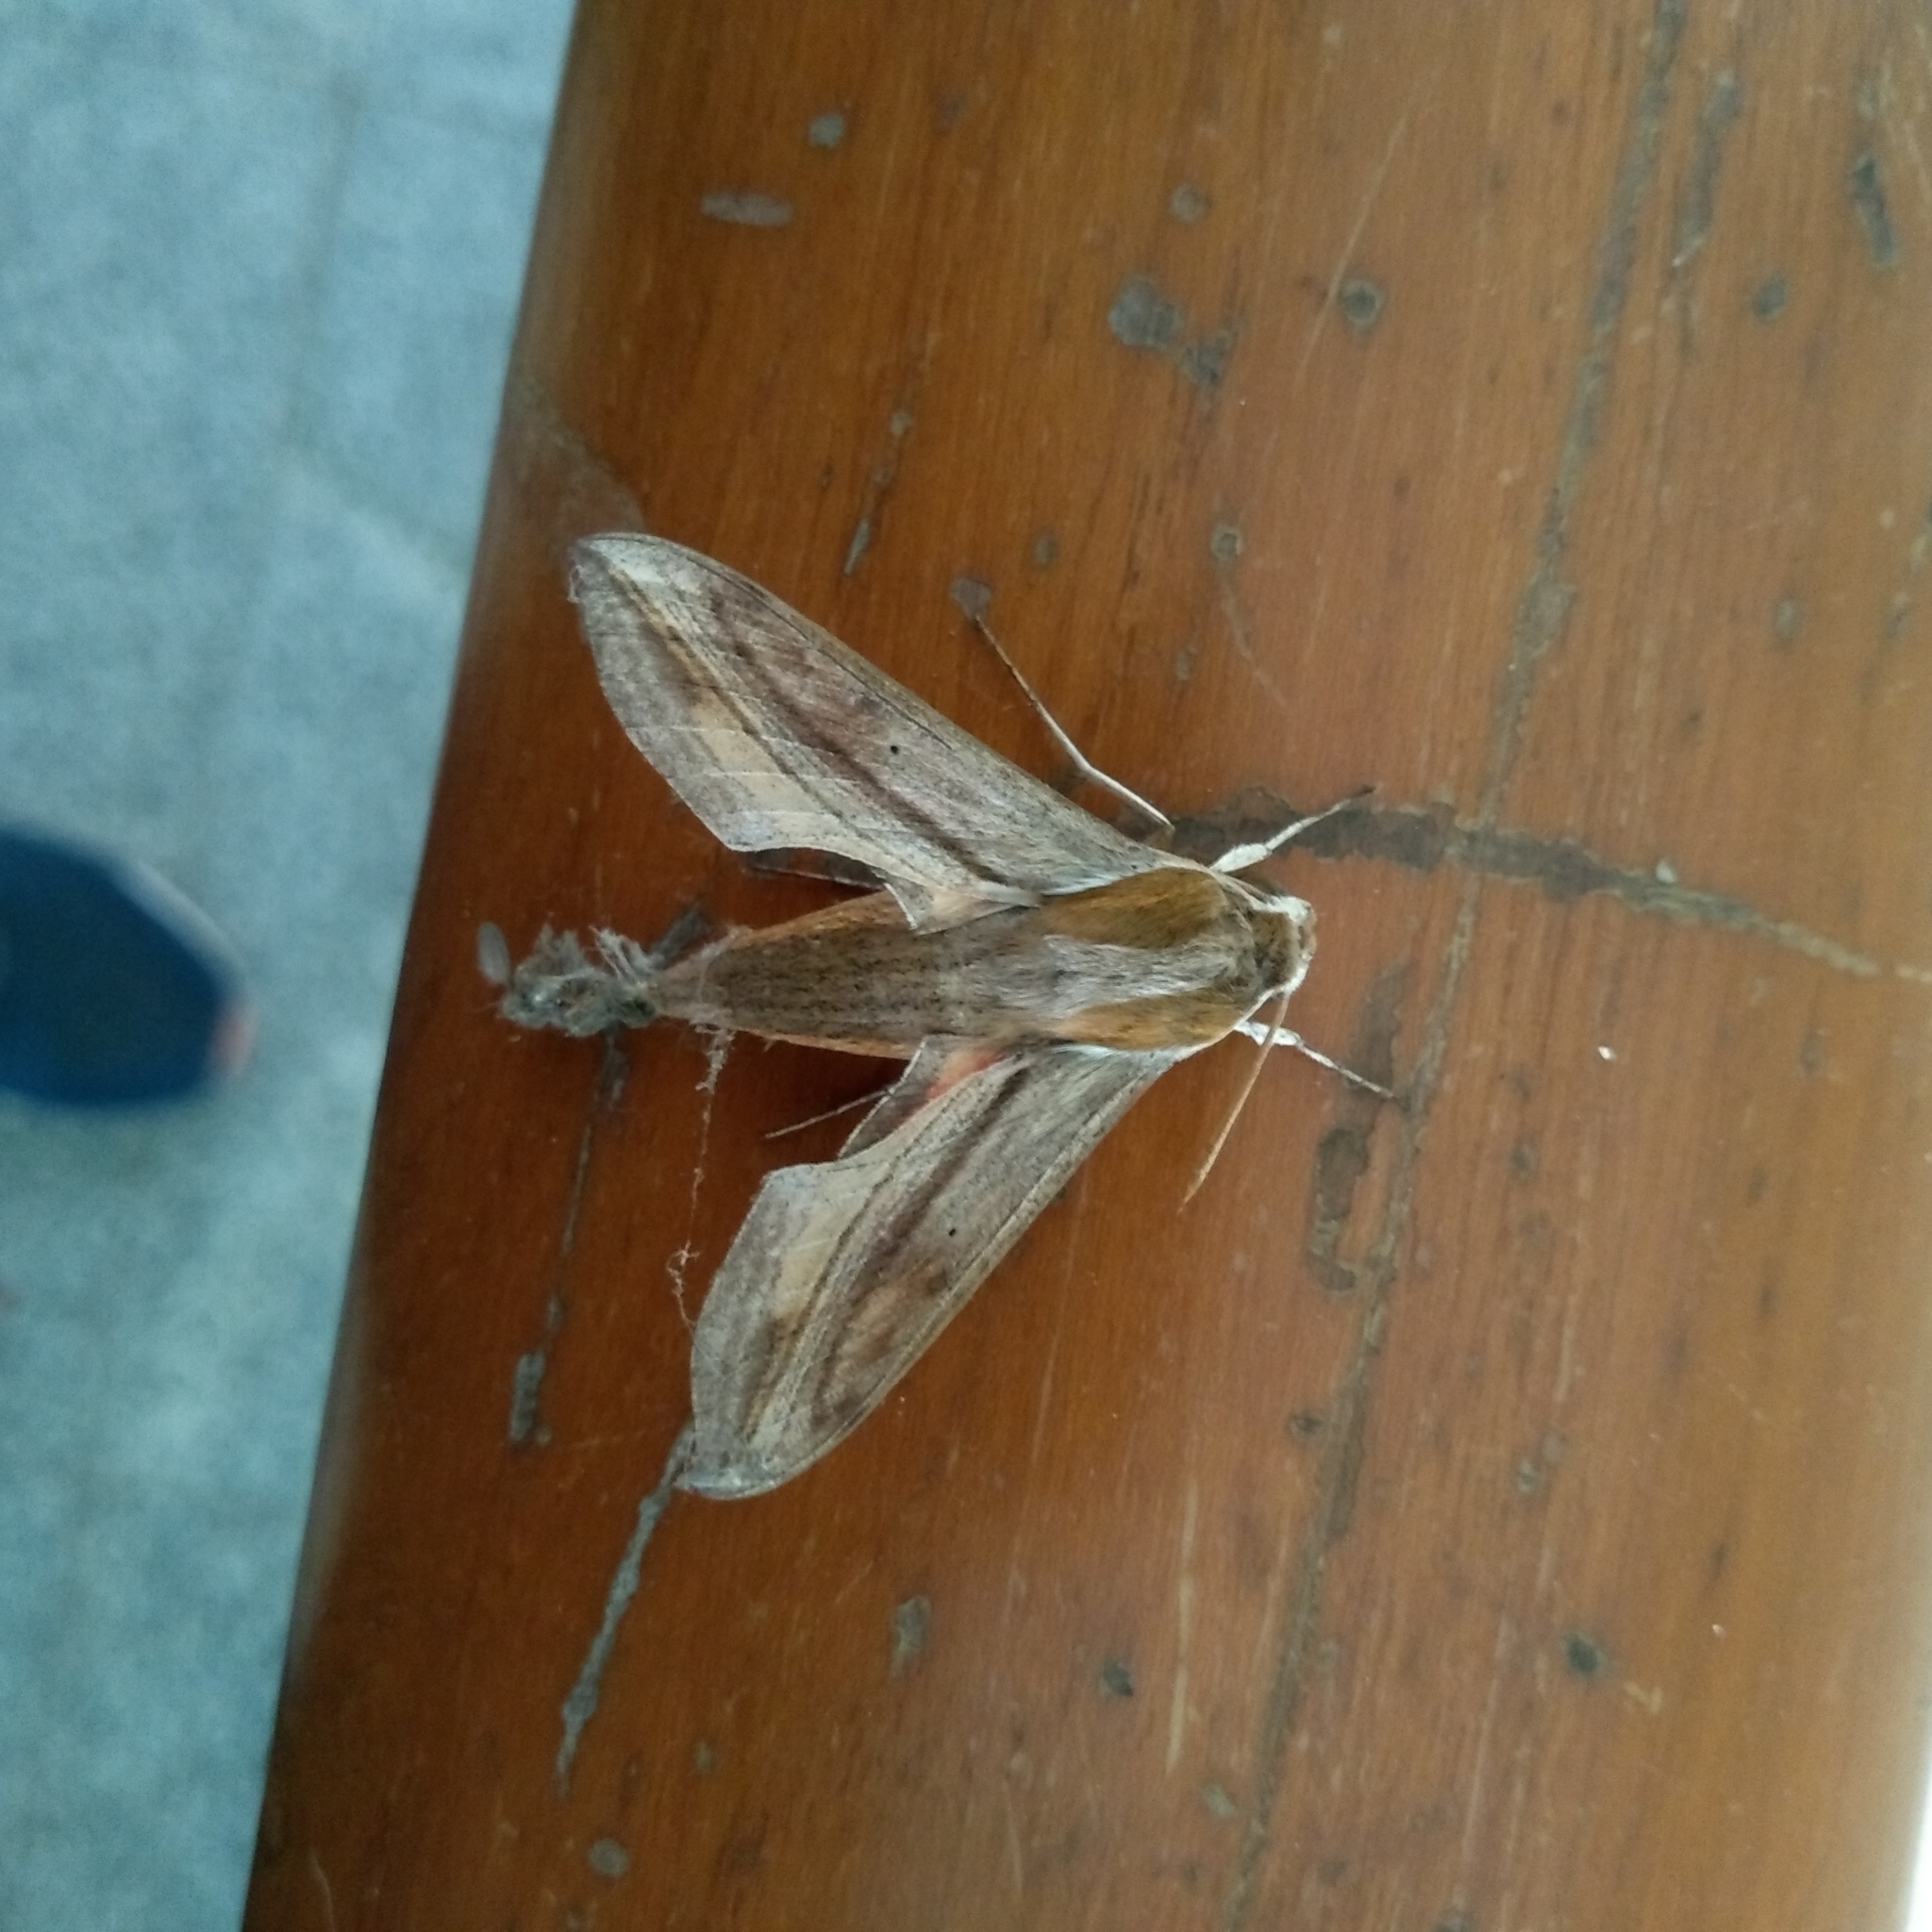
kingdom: Animalia
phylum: Arthropoda
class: Insecta
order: Lepidoptera
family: Sphingidae
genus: Hippotion
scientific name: Hippotion rosetta
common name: Vine hawk moth
